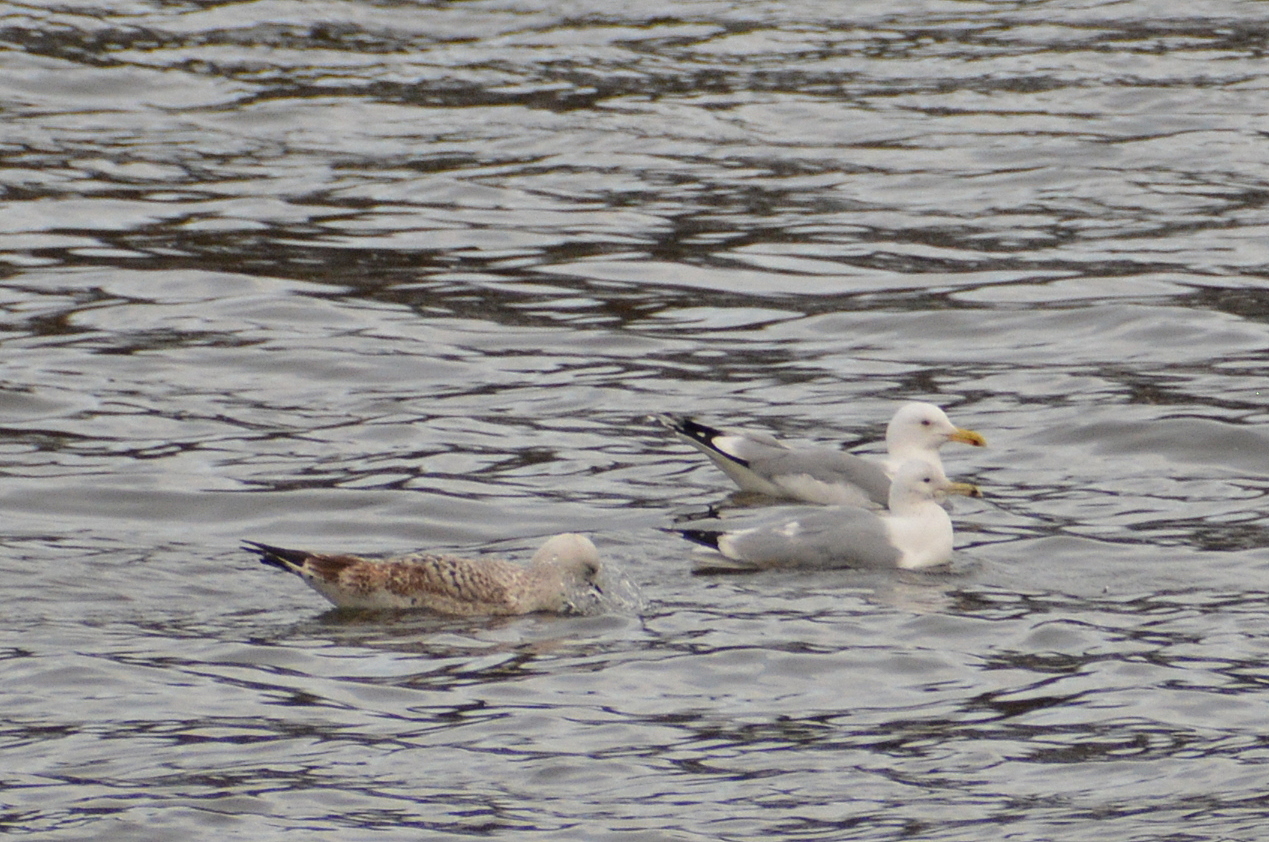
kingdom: Animalia
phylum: Chordata
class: Aves
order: Charadriiformes
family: Laridae
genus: Larus
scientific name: Larus cachinnans
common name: Caspian gull
